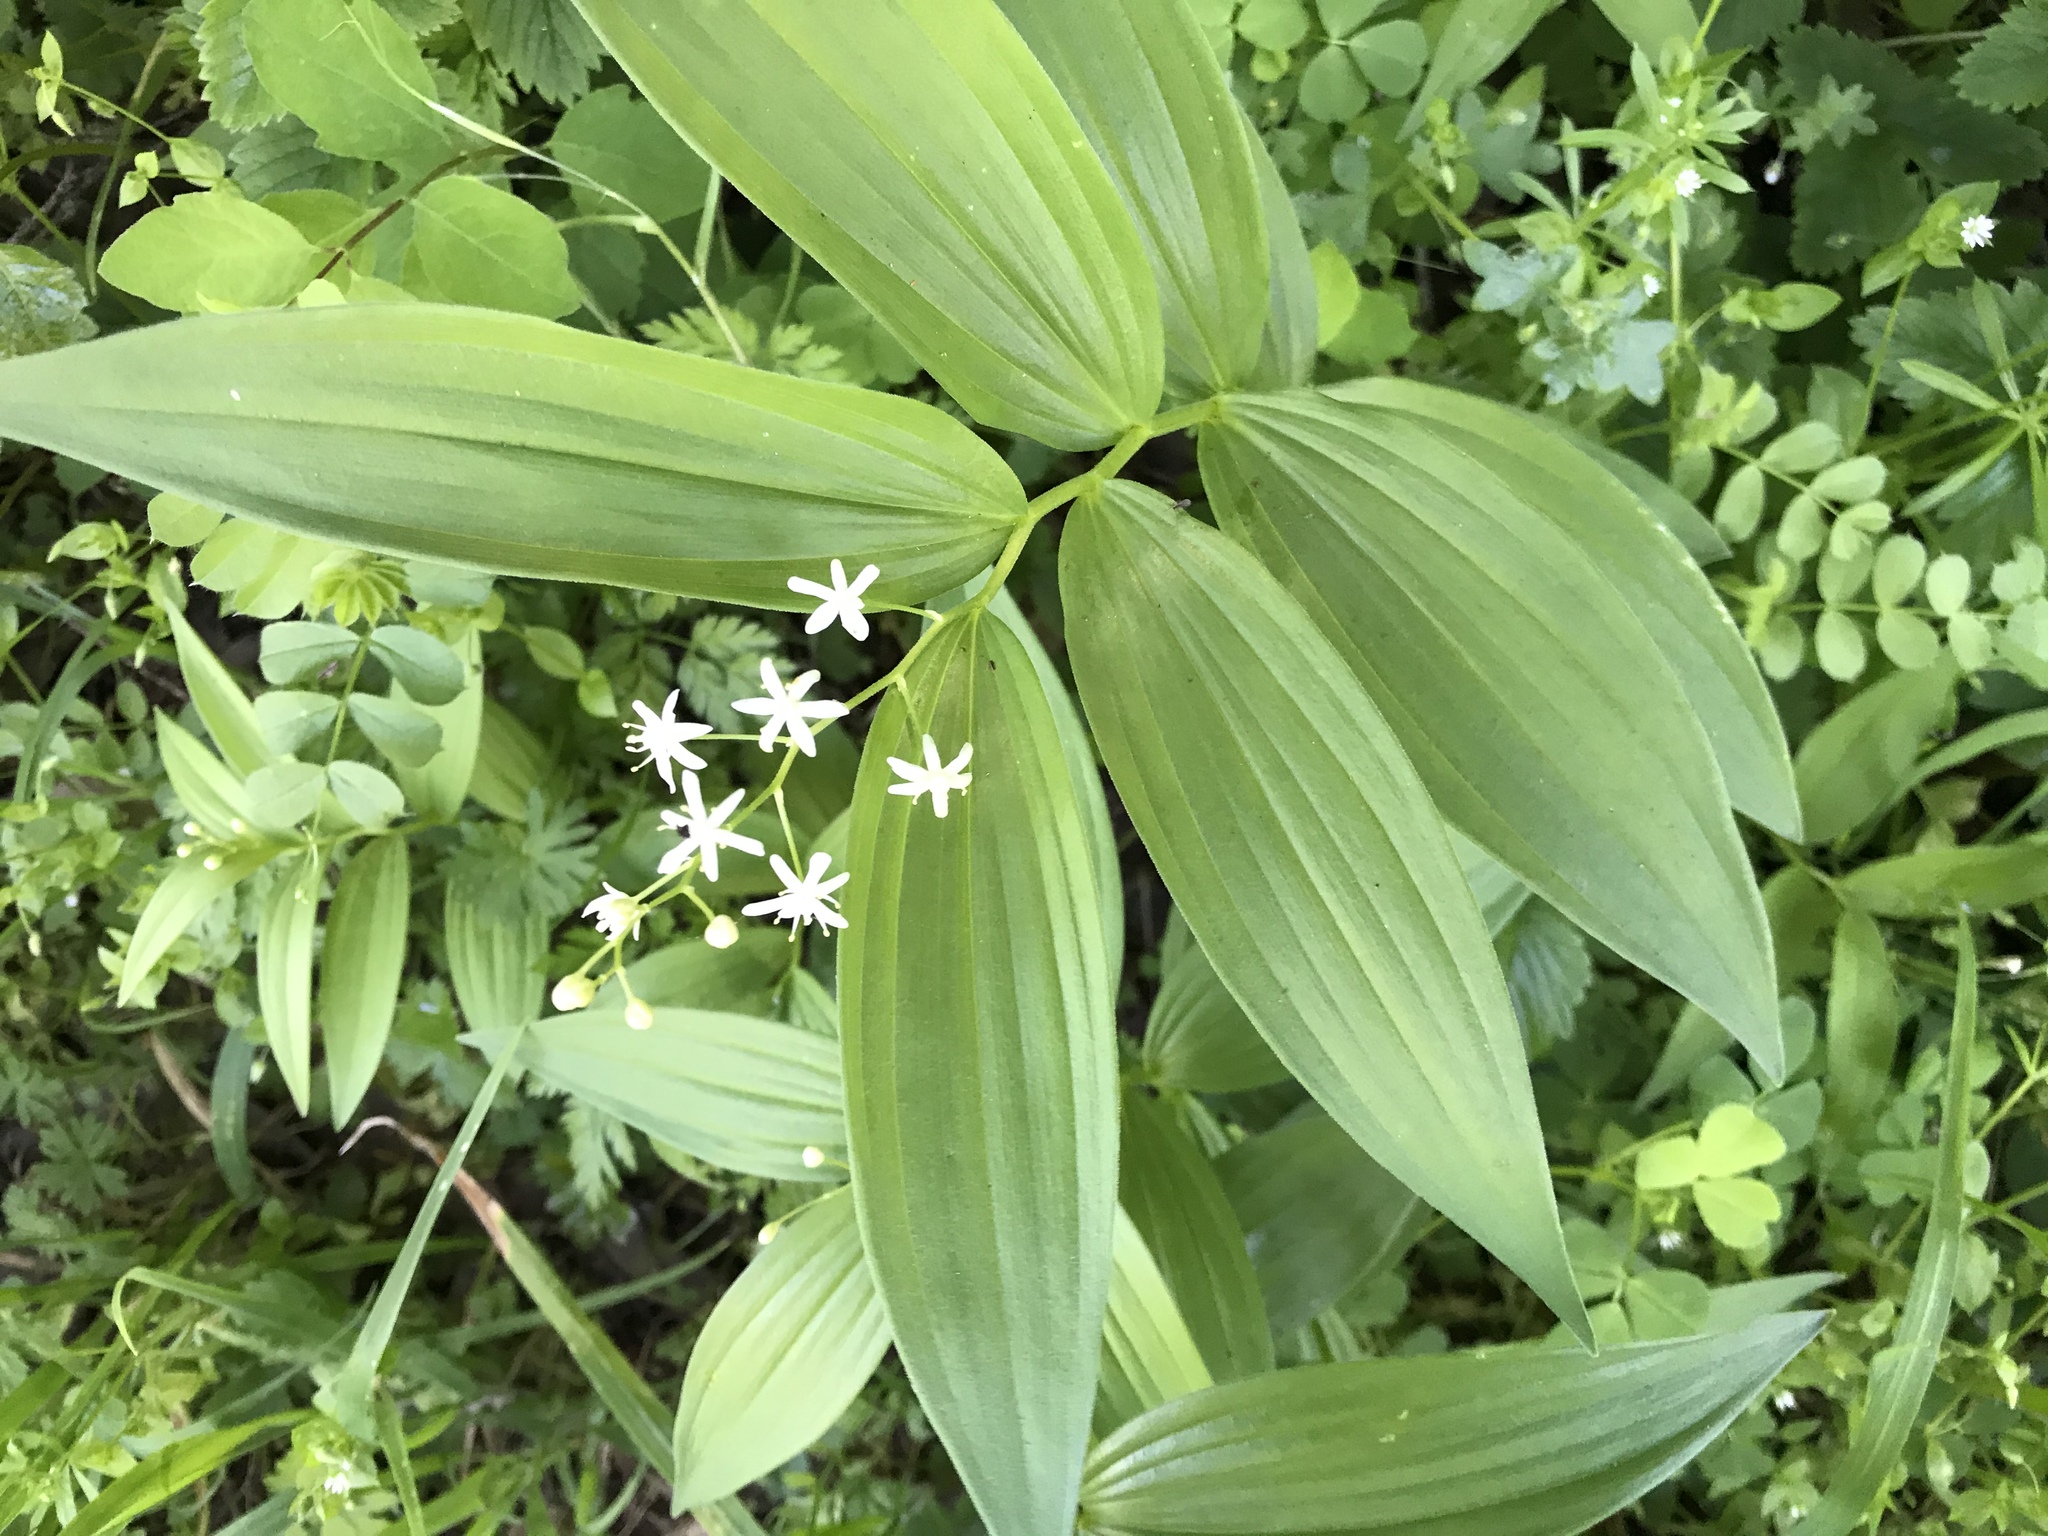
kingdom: Plantae
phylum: Tracheophyta
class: Liliopsida
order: Asparagales
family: Asparagaceae
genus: Maianthemum
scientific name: Maianthemum stellatum
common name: Little false solomon's seal
